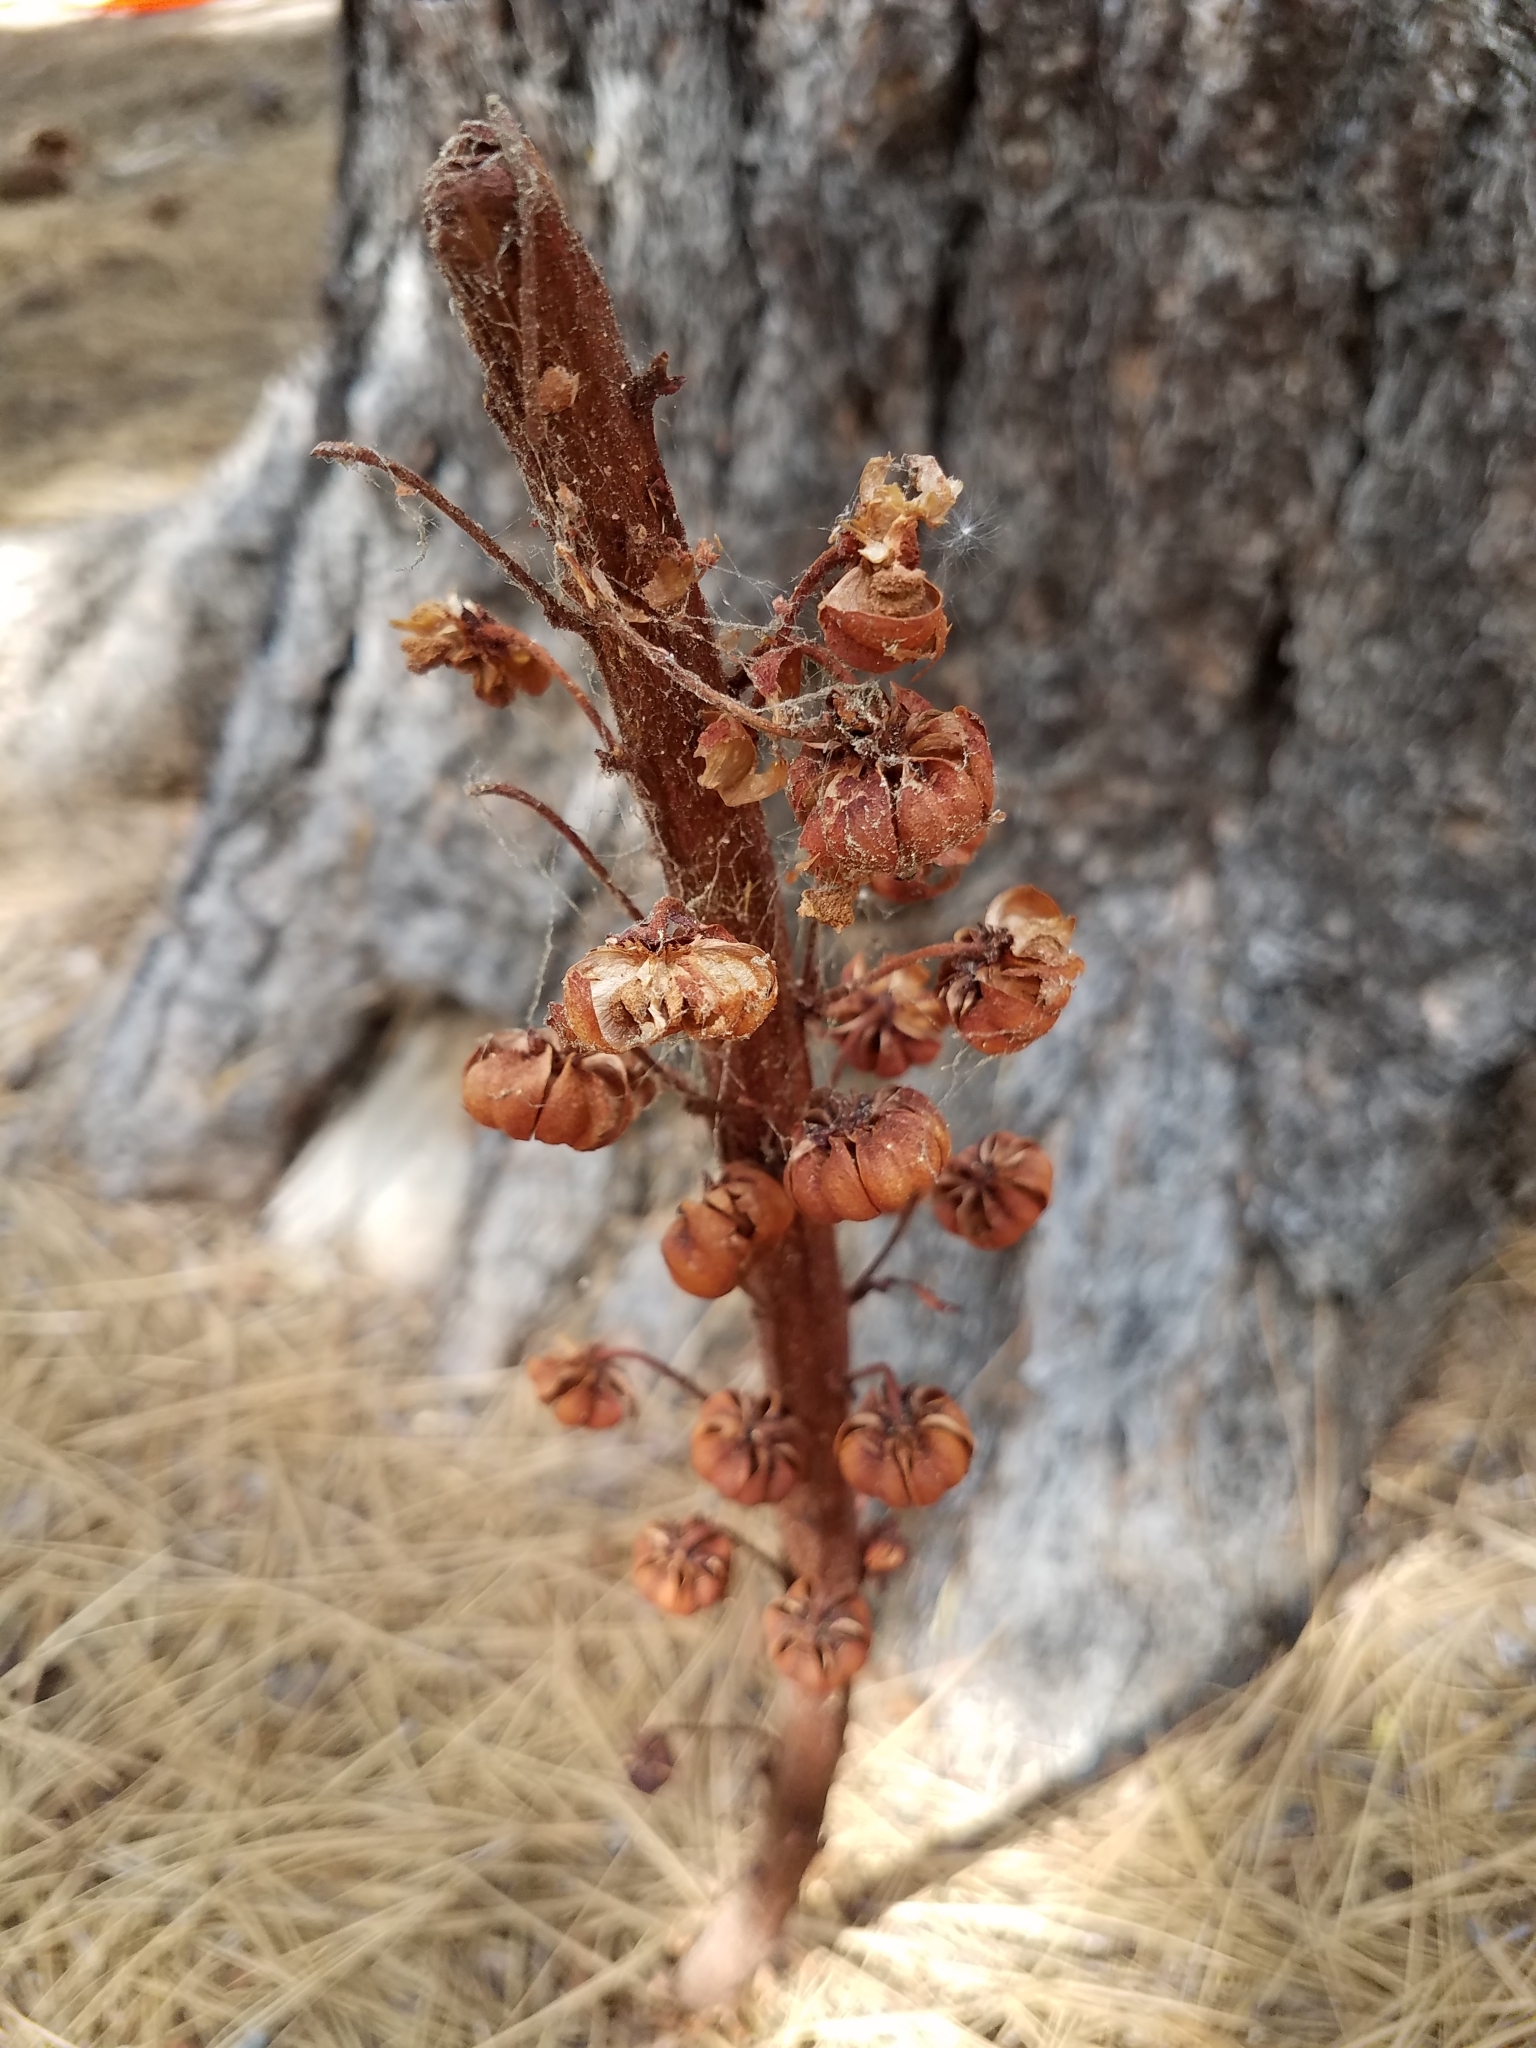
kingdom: Plantae
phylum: Tracheophyta
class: Magnoliopsida
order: Ericales
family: Ericaceae
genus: Pterospora
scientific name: Pterospora andromedea
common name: Giant bird's-nest
